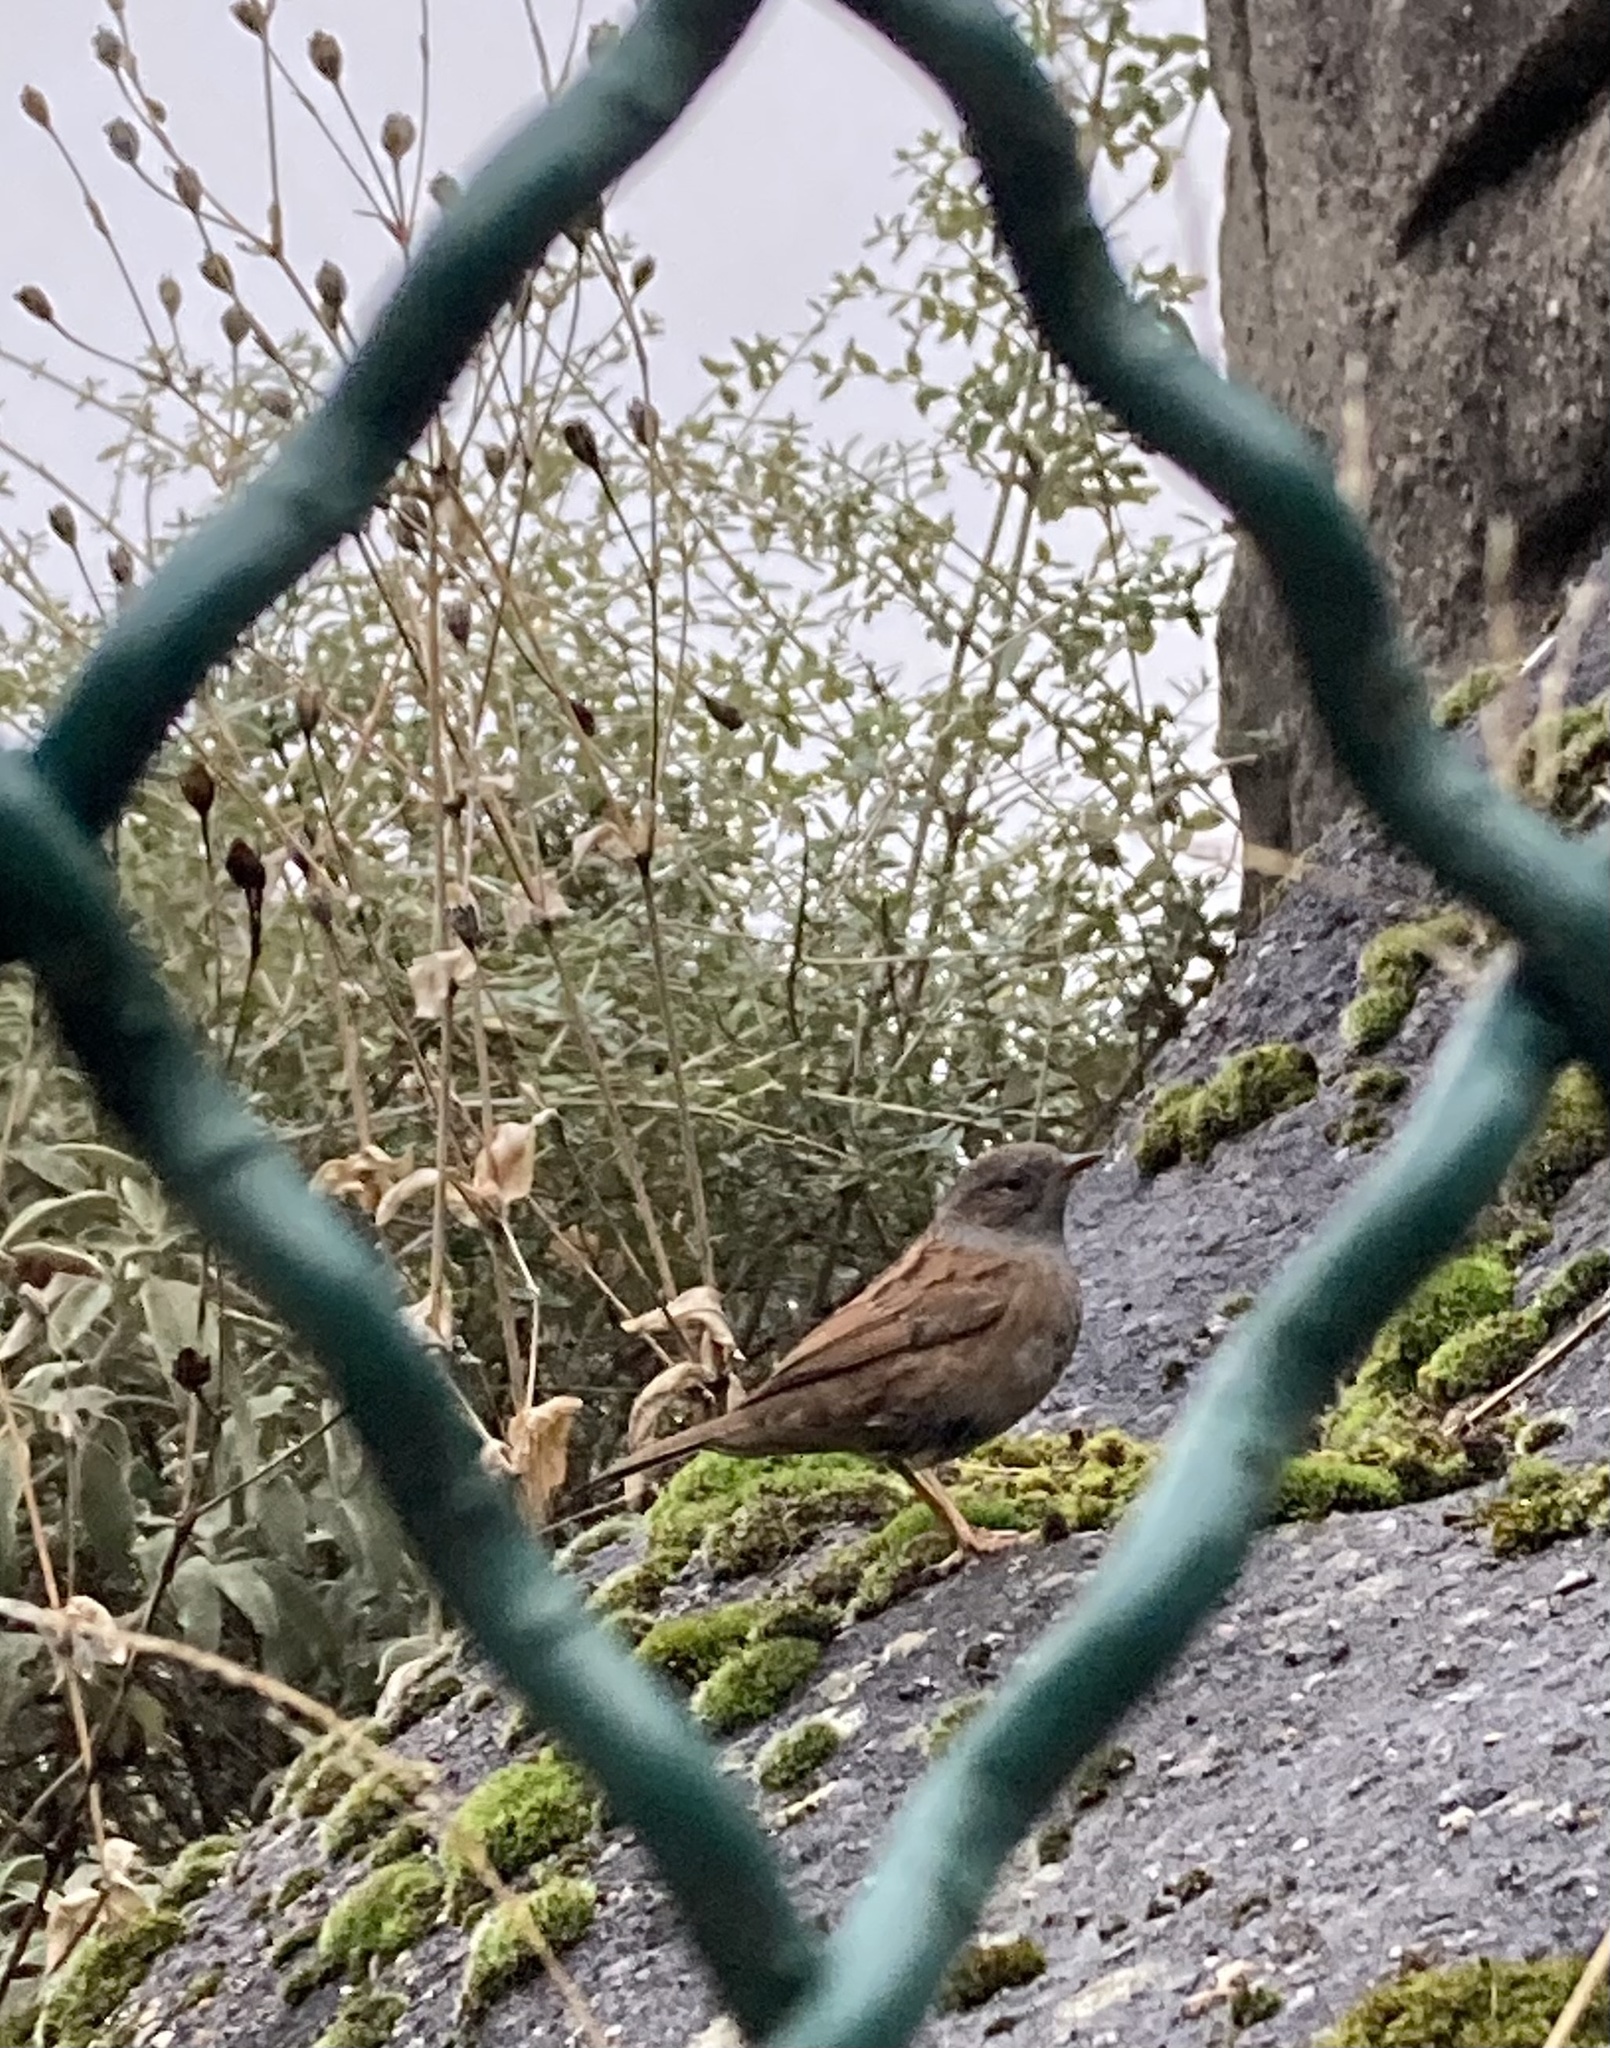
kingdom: Animalia
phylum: Chordata
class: Aves
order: Passeriformes
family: Prunellidae
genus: Prunella
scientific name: Prunella modularis
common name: Dunnock
